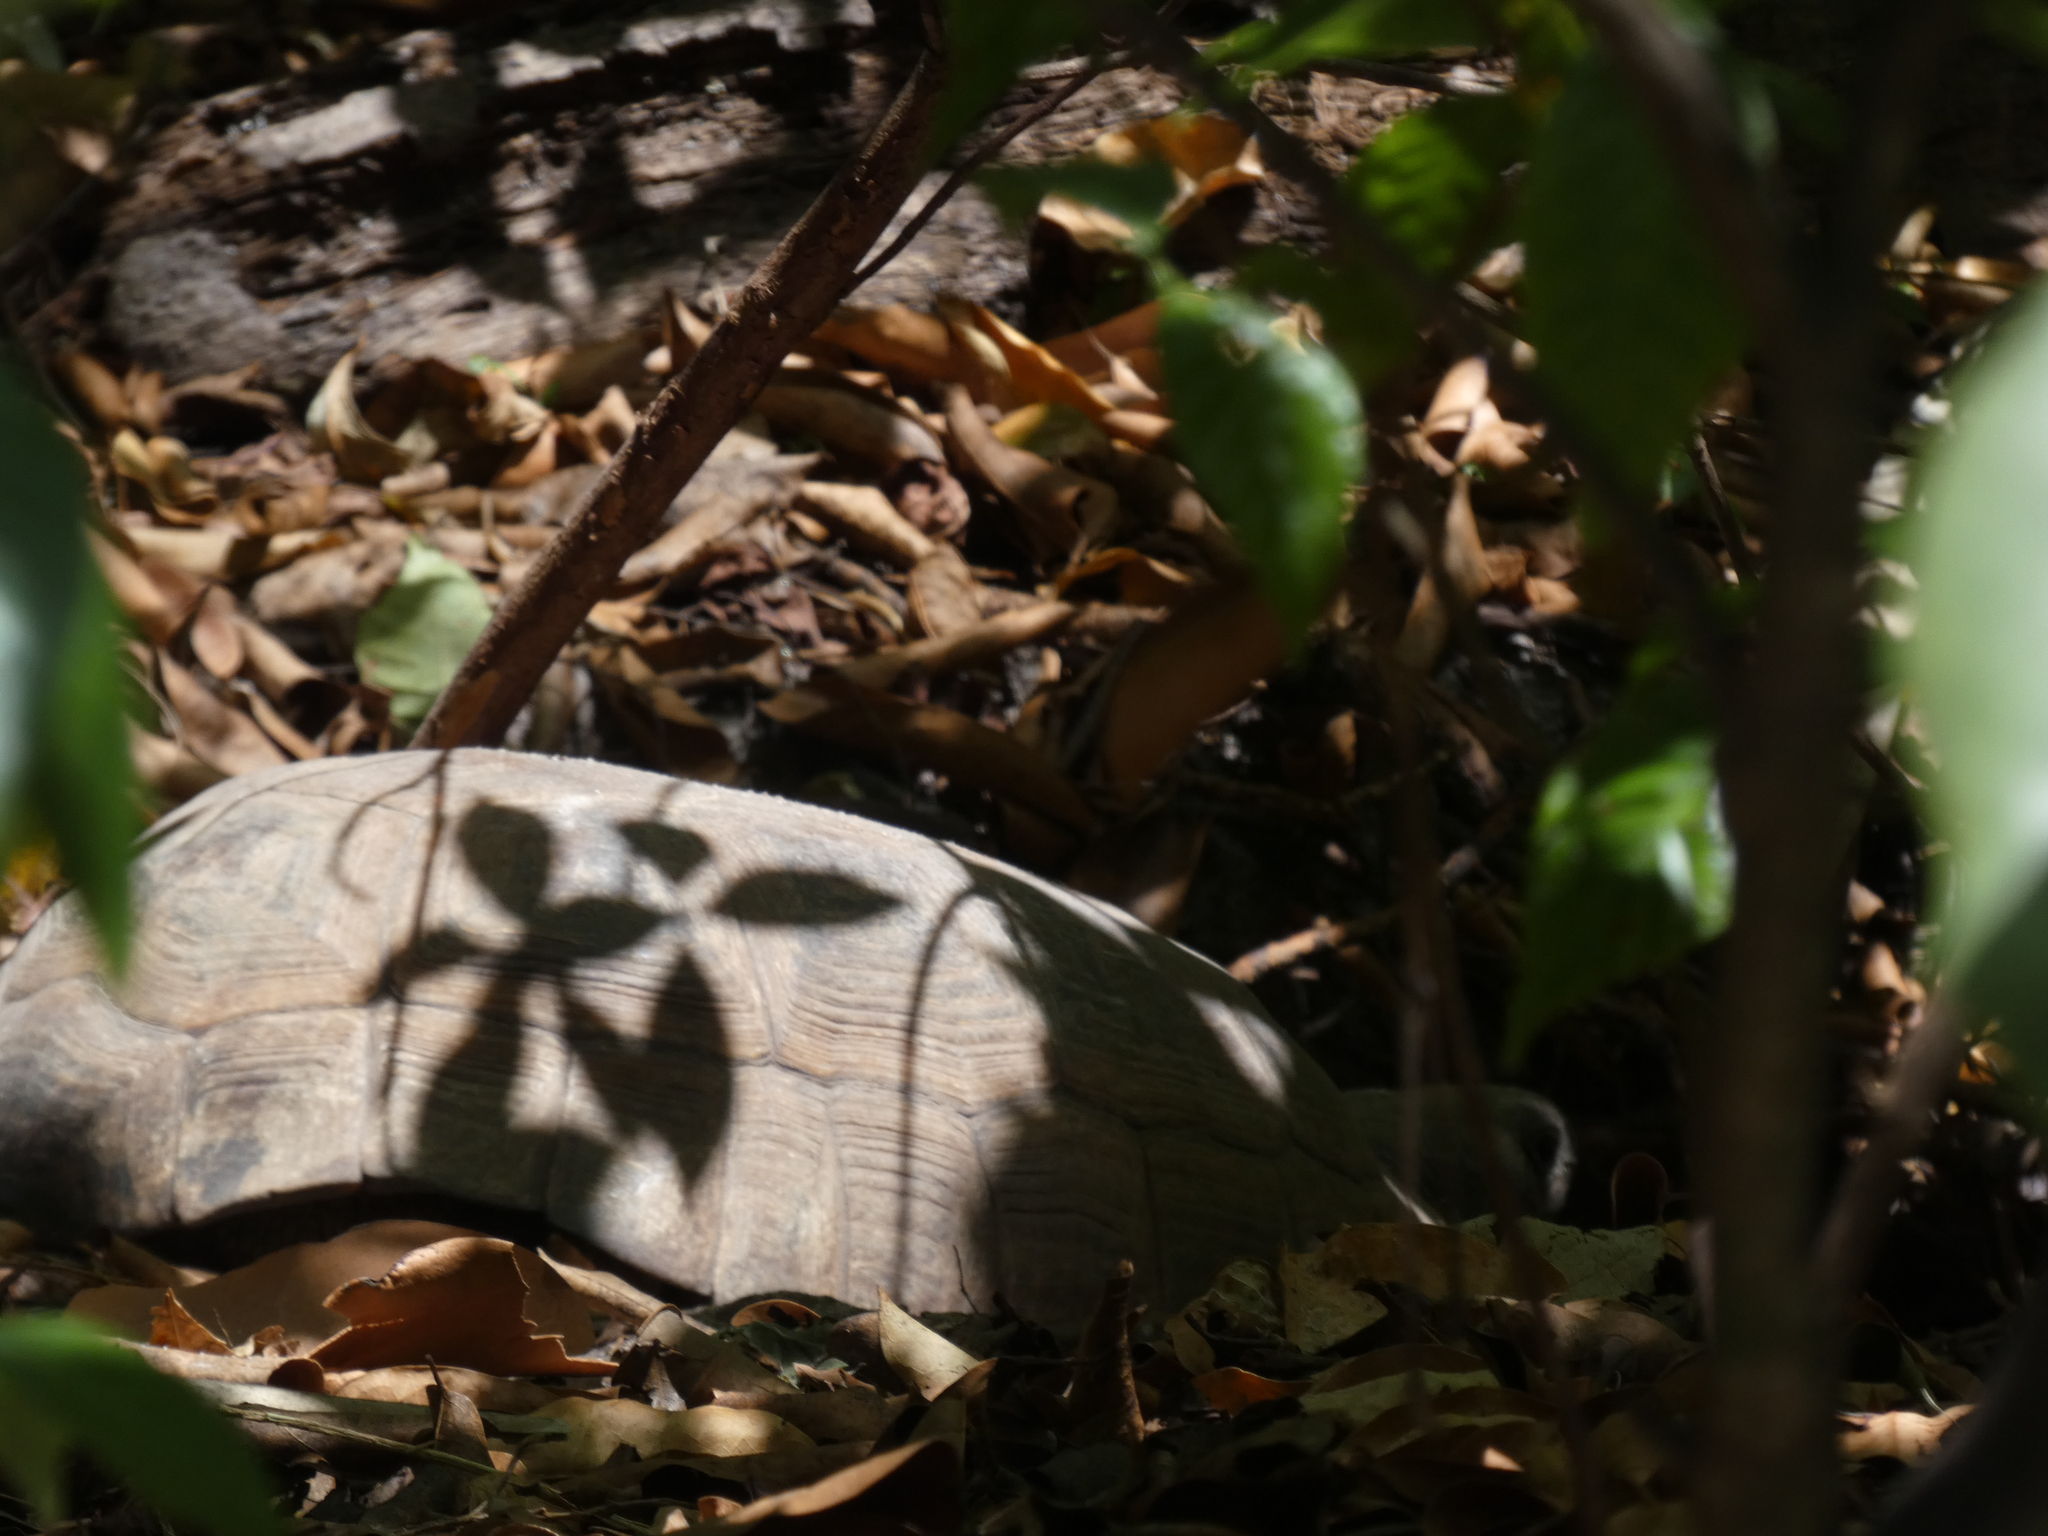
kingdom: Animalia
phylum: Chordata
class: Testudines
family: Testudinidae
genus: Gopherus
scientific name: Gopherus polyphemus
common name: Florida gopher tortoise
